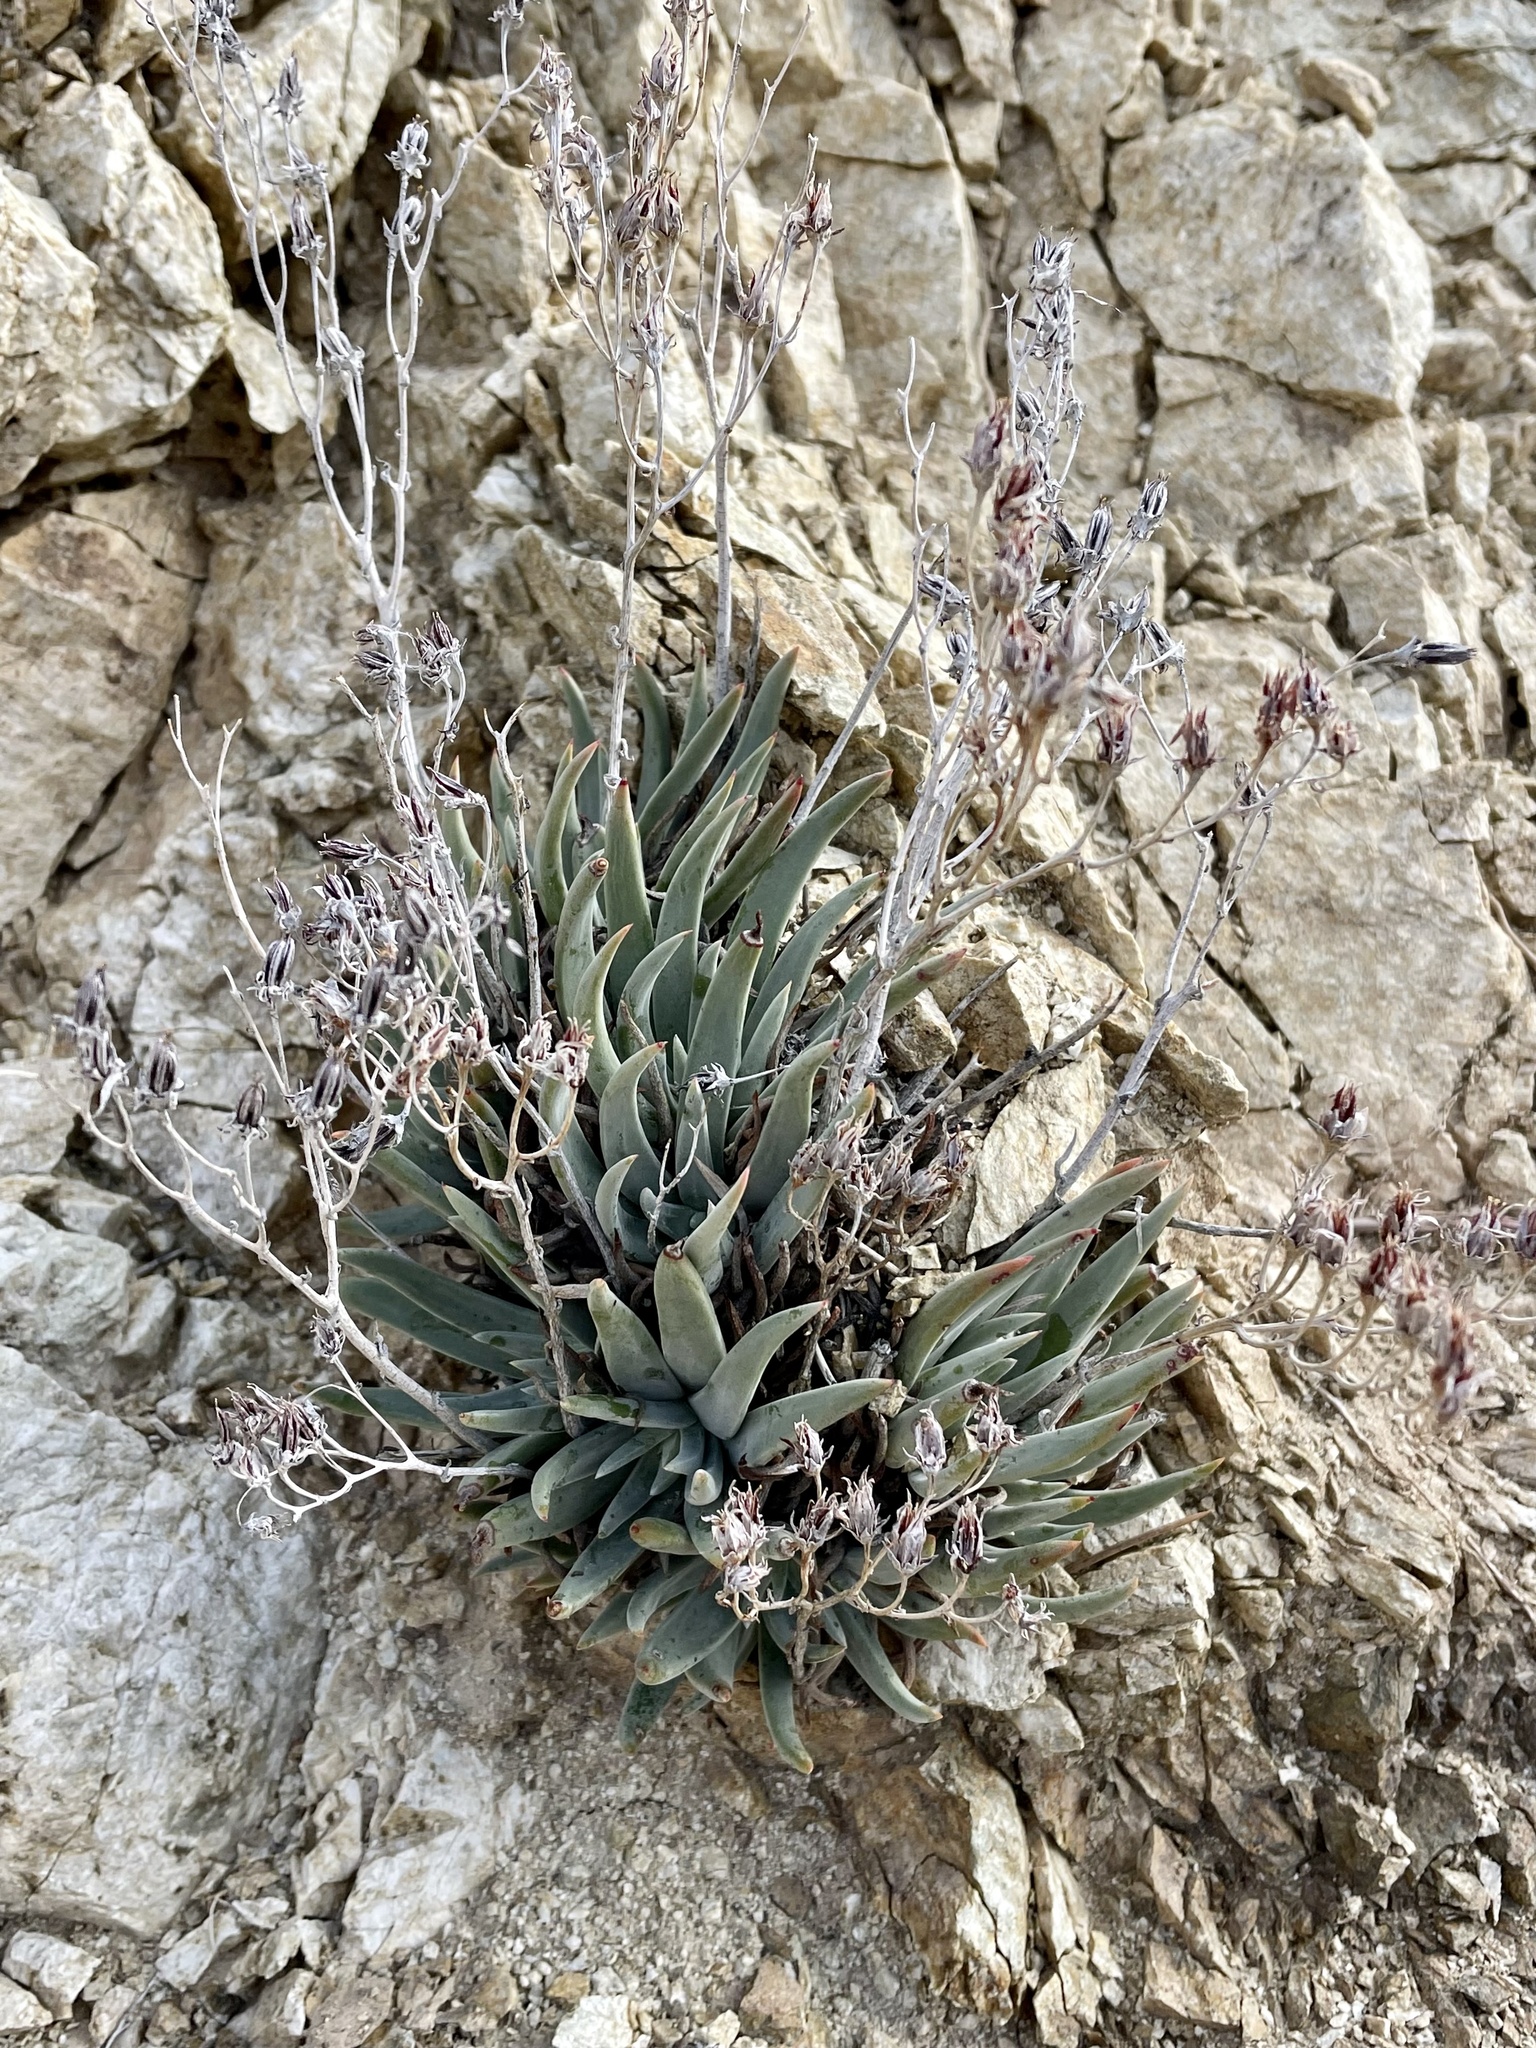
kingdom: Plantae
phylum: Tracheophyta
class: Magnoliopsida
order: Saxifragales
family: Crassulaceae
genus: Dudleya
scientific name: Dudleya saxosa
